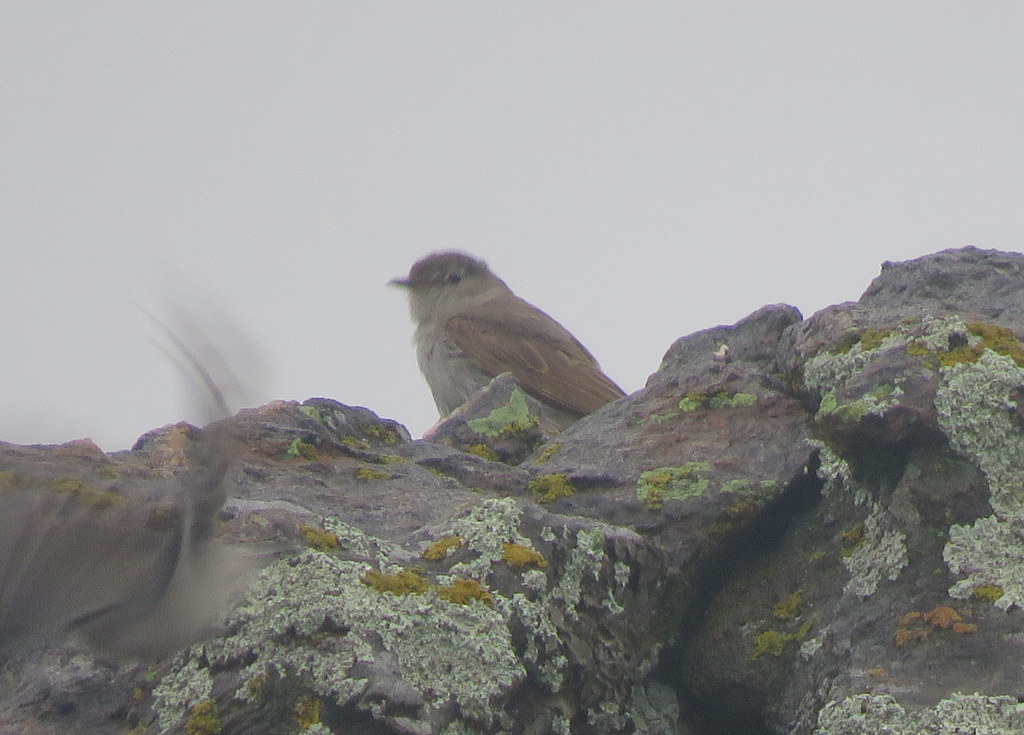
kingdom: Animalia
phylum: Chordata
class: Aves
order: Passeriformes
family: Tyrannidae
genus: Muscisaxicola
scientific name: Muscisaxicola maculirostris
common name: Spot-billed ground tyrant
